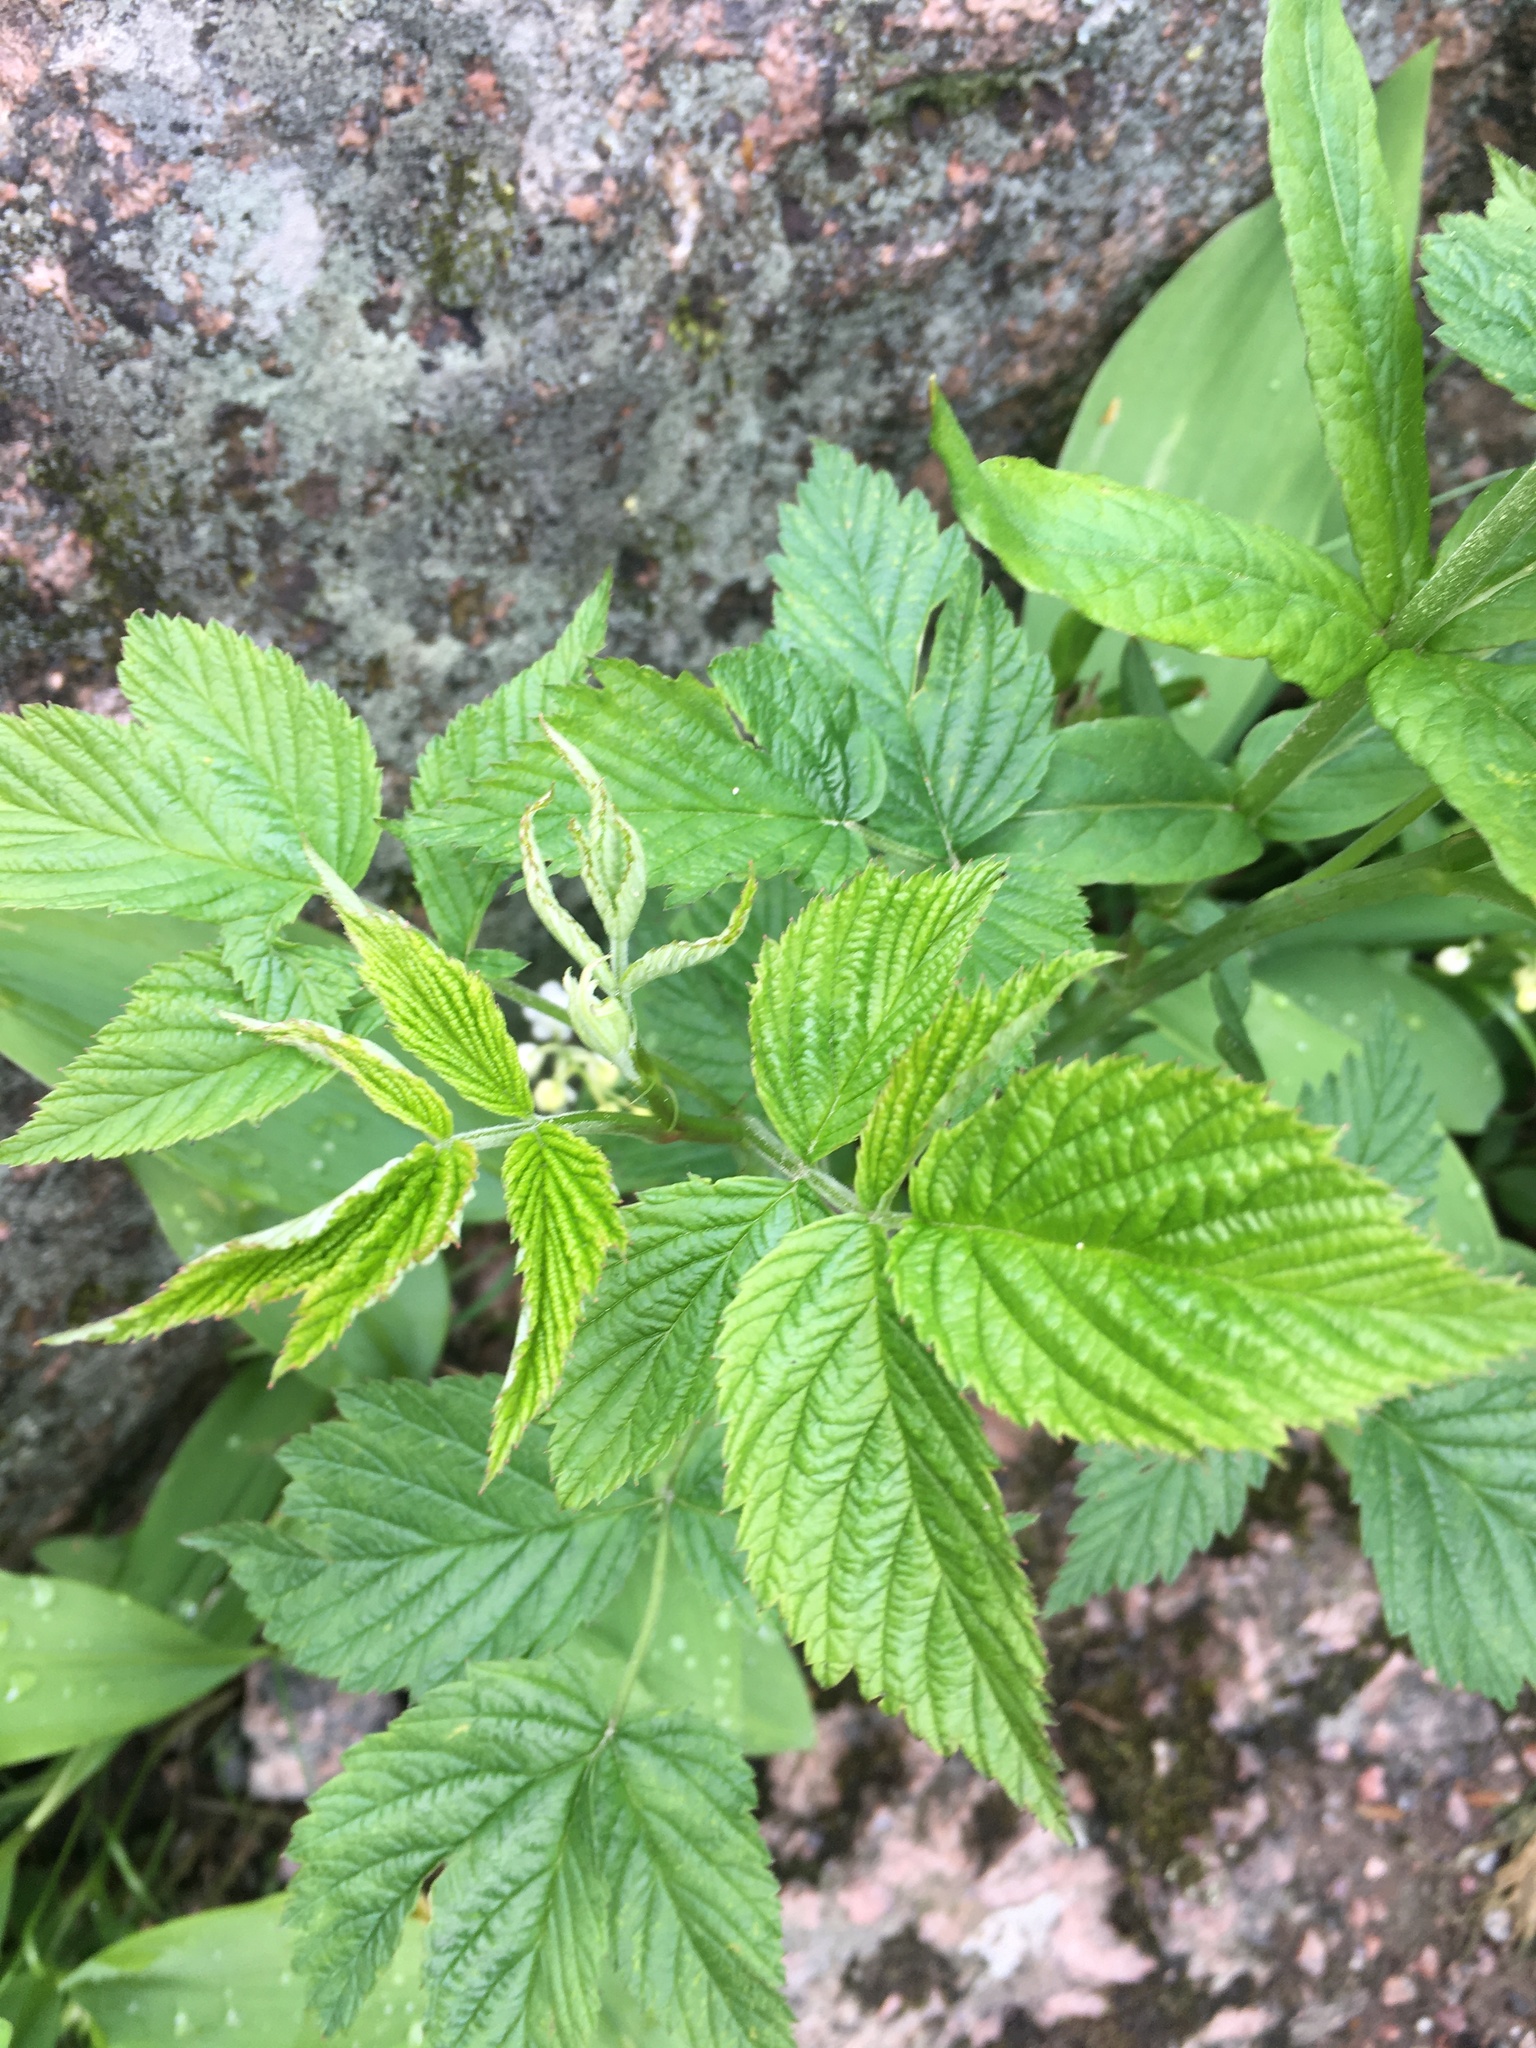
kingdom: Plantae
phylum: Tracheophyta
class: Magnoliopsida
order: Rosales
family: Rosaceae
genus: Rubus
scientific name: Rubus idaeus
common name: Raspberry
